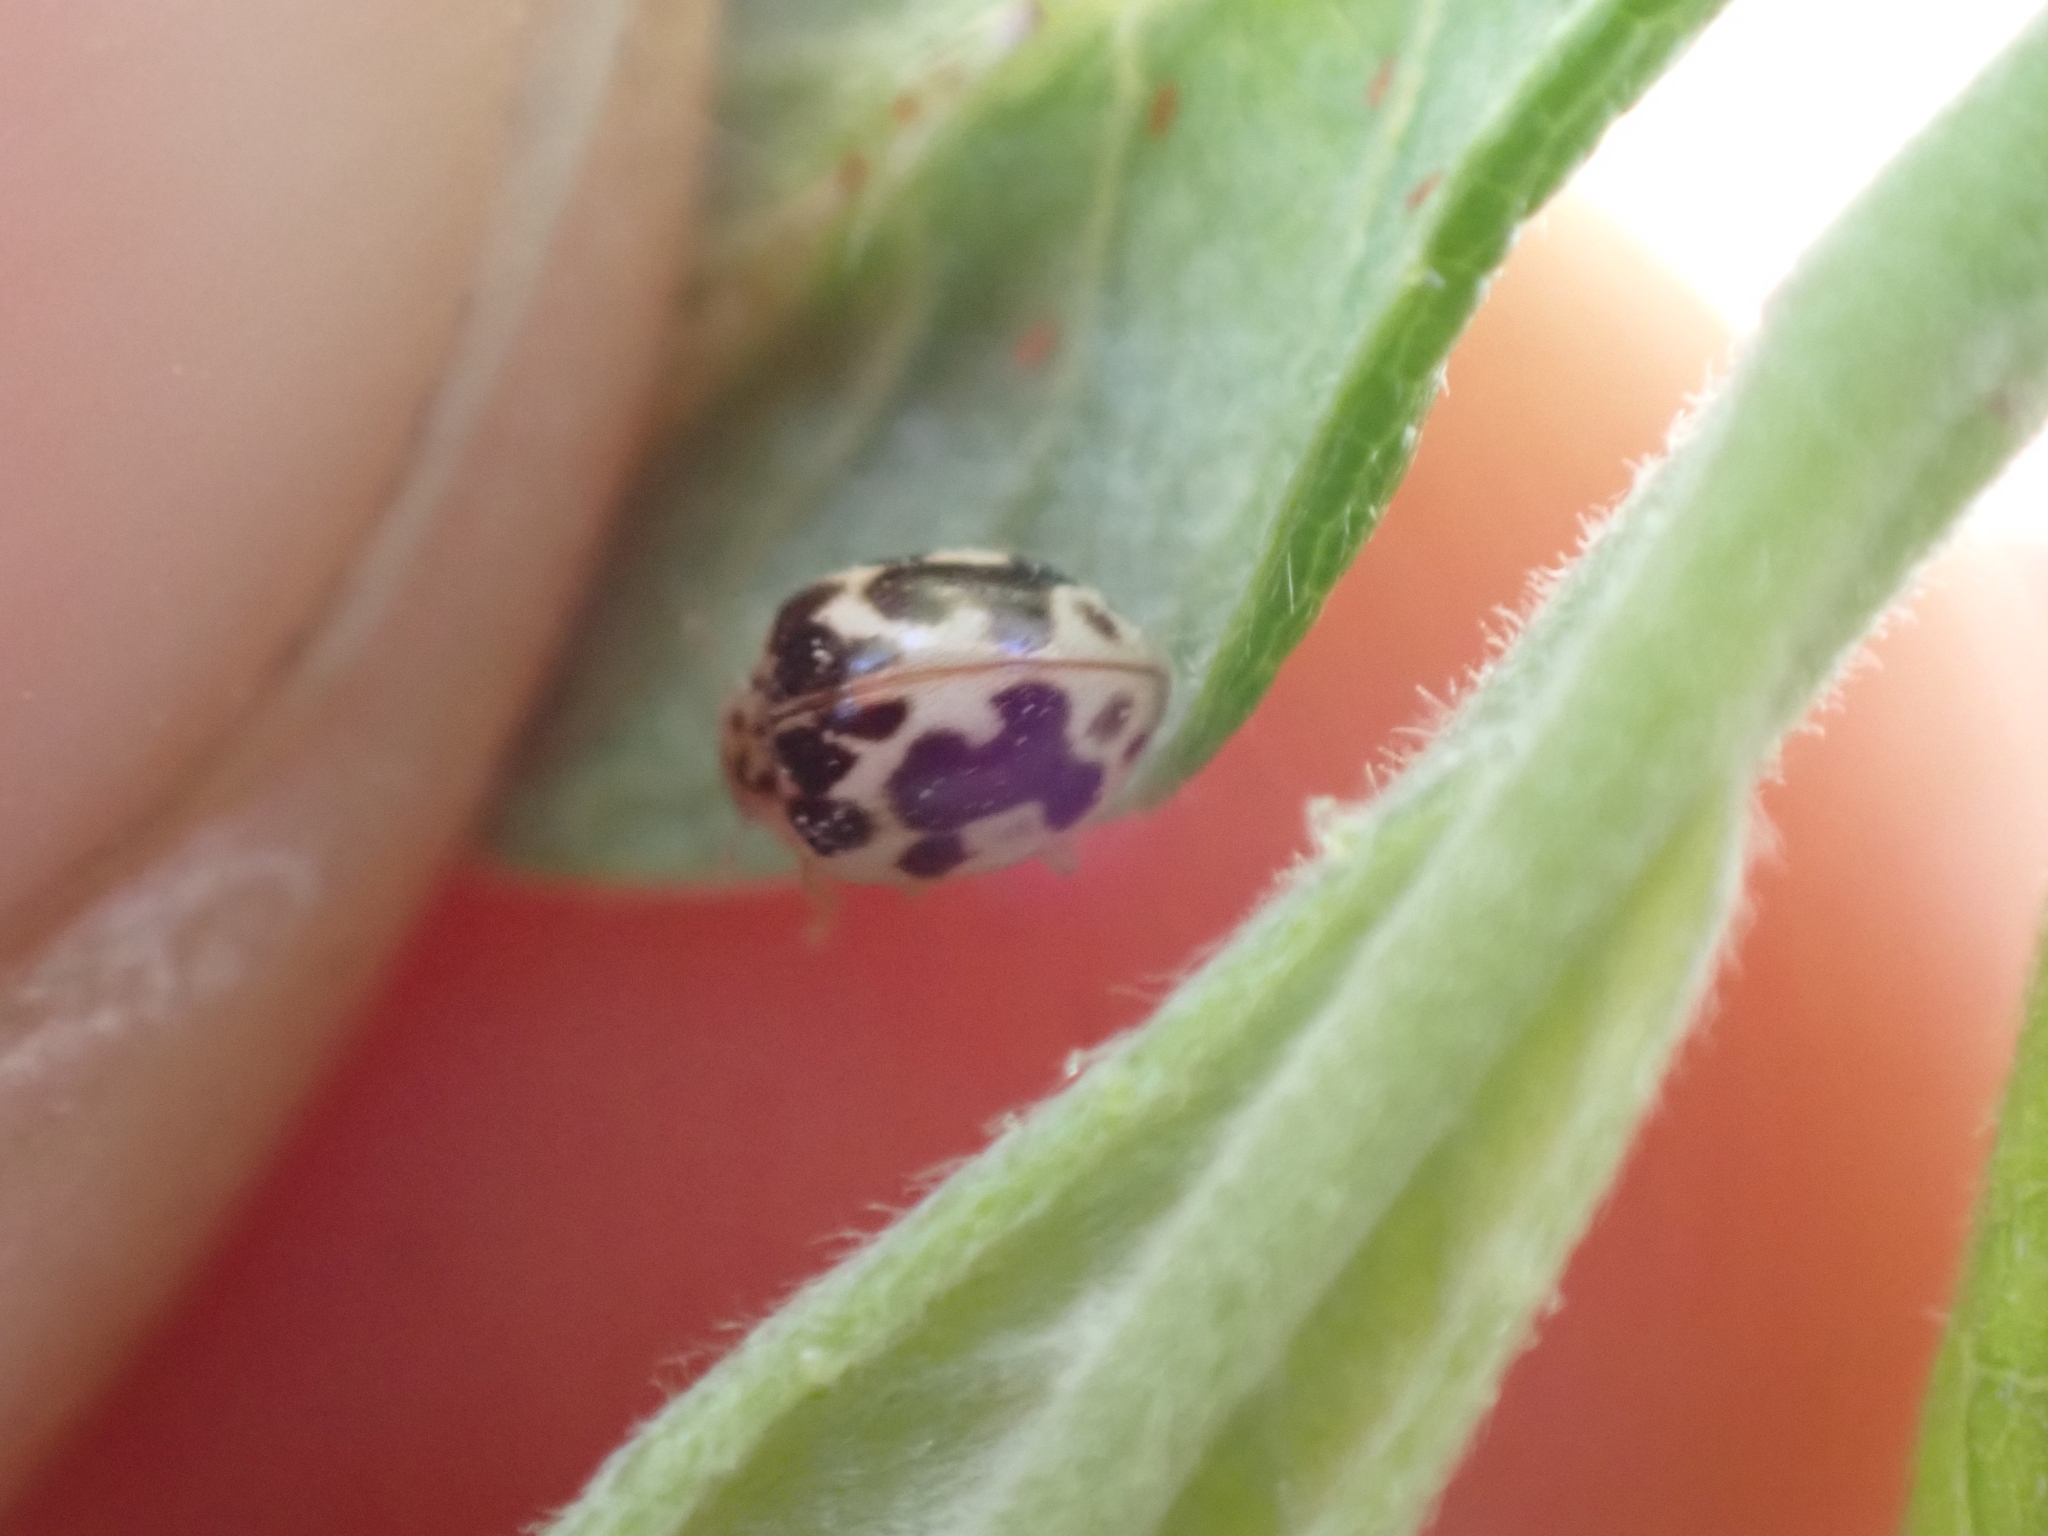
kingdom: Animalia
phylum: Arthropoda
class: Insecta
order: Coleoptera
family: Coccinellidae
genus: Psyllobora
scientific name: Psyllobora vigintimaculata
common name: Ladybird beetle
